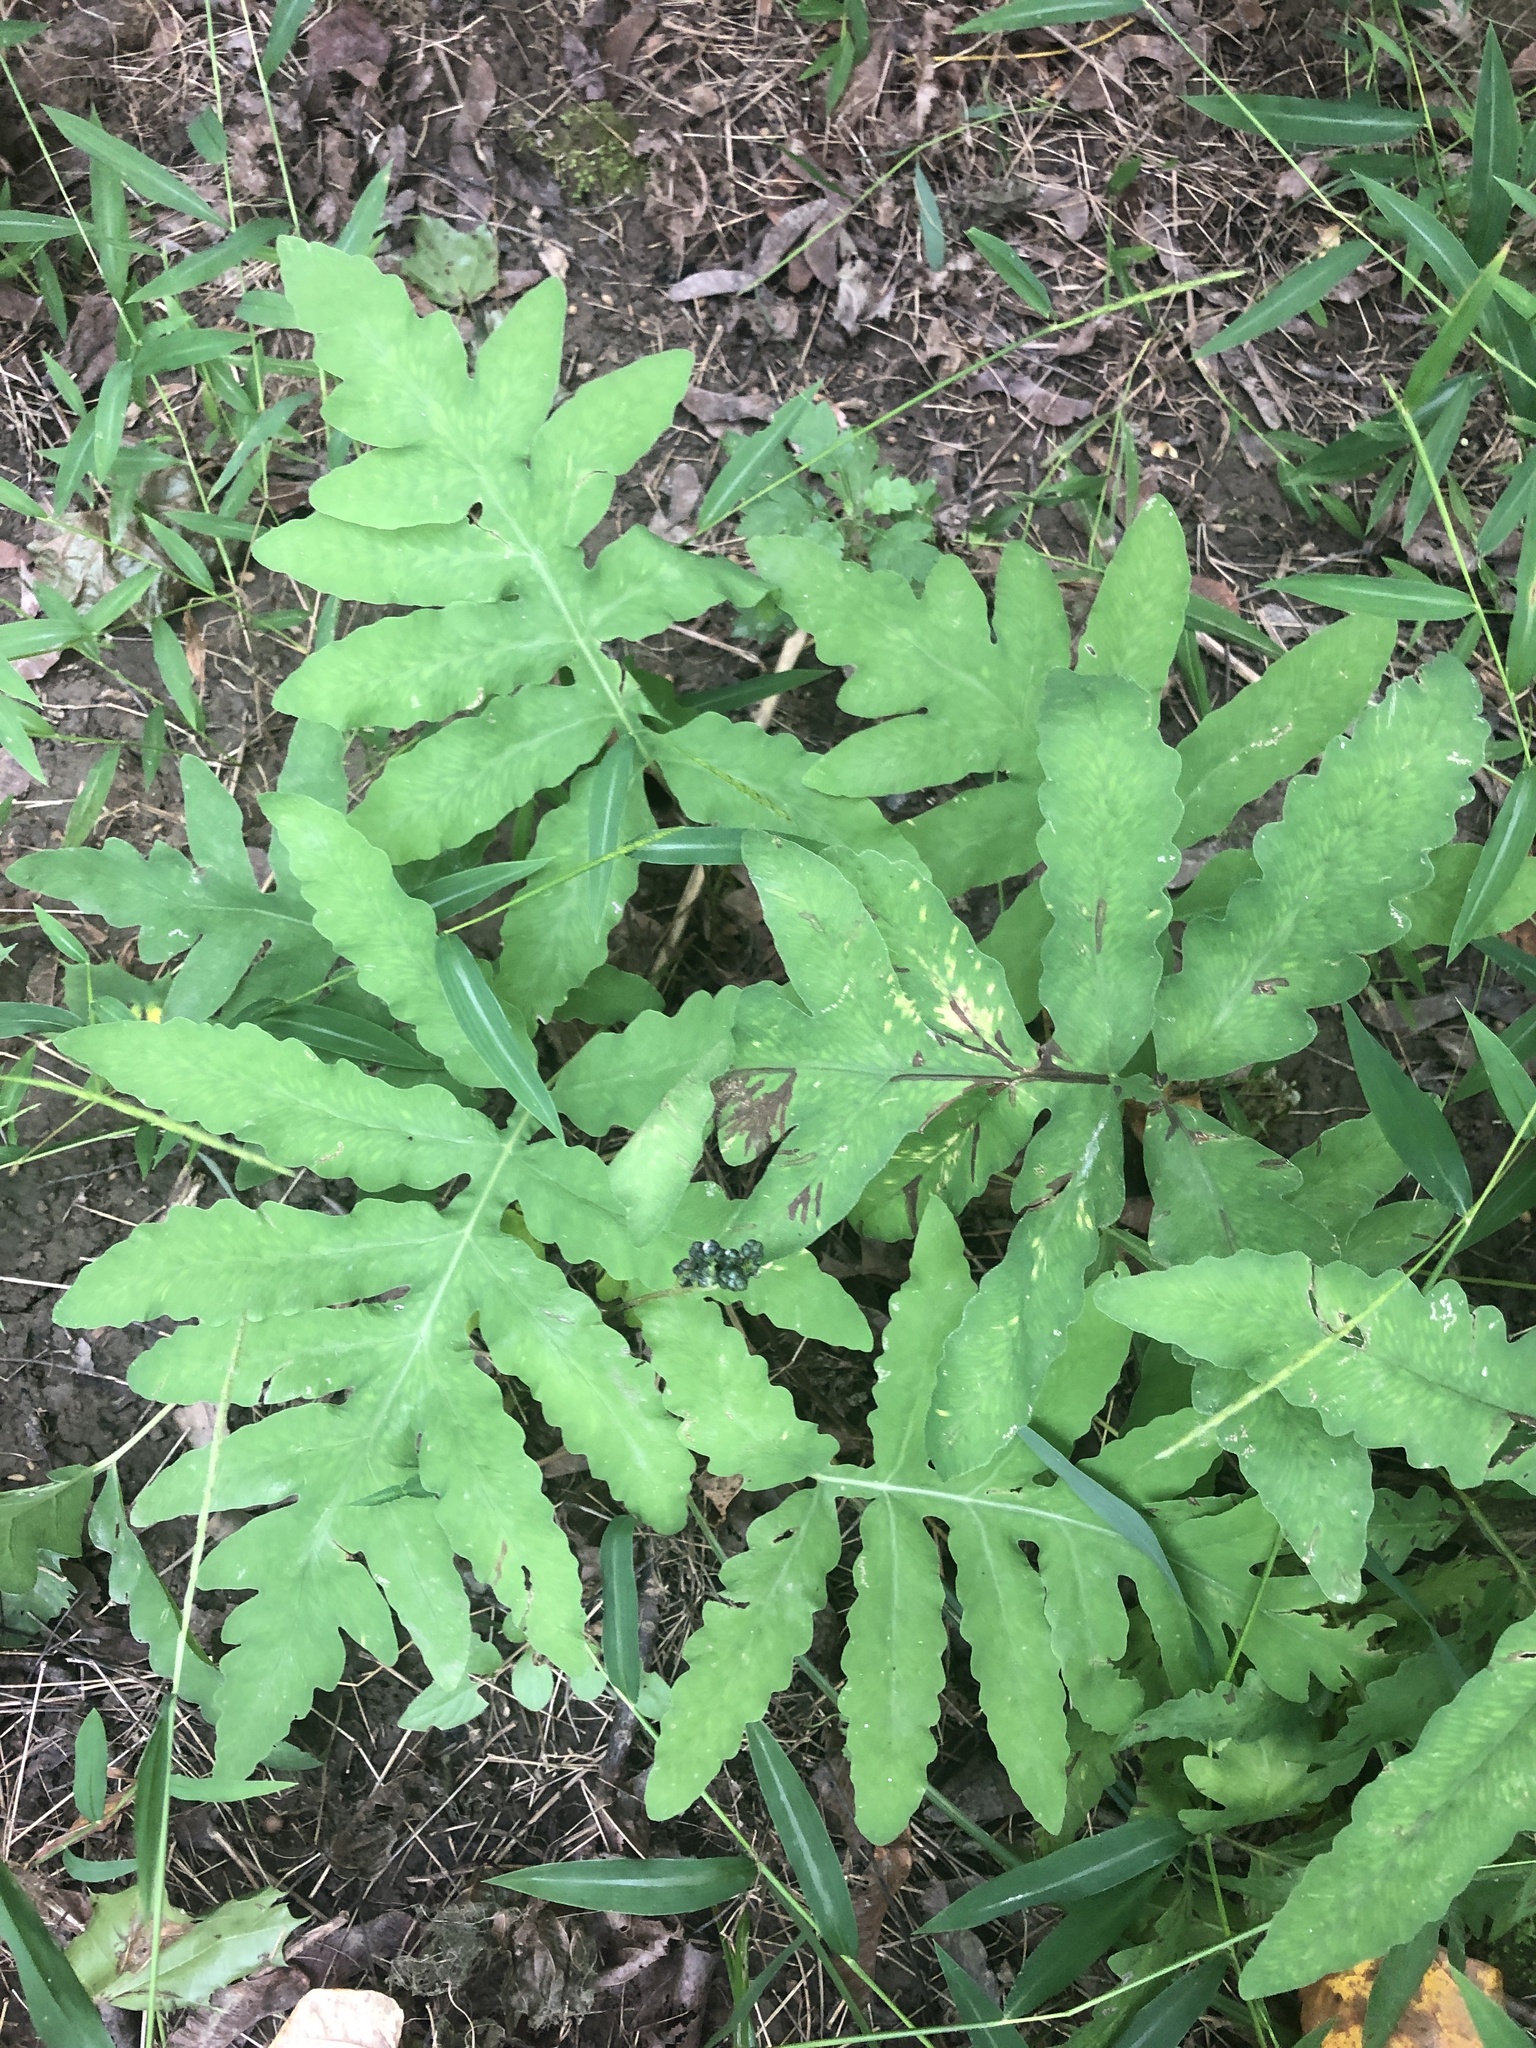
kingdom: Plantae
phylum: Tracheophyta
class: Polypodiopsida
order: Polypodiales
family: Onocleaceae
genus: Onoclea
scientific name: Onoclea sensibilis
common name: Sensitive fern
